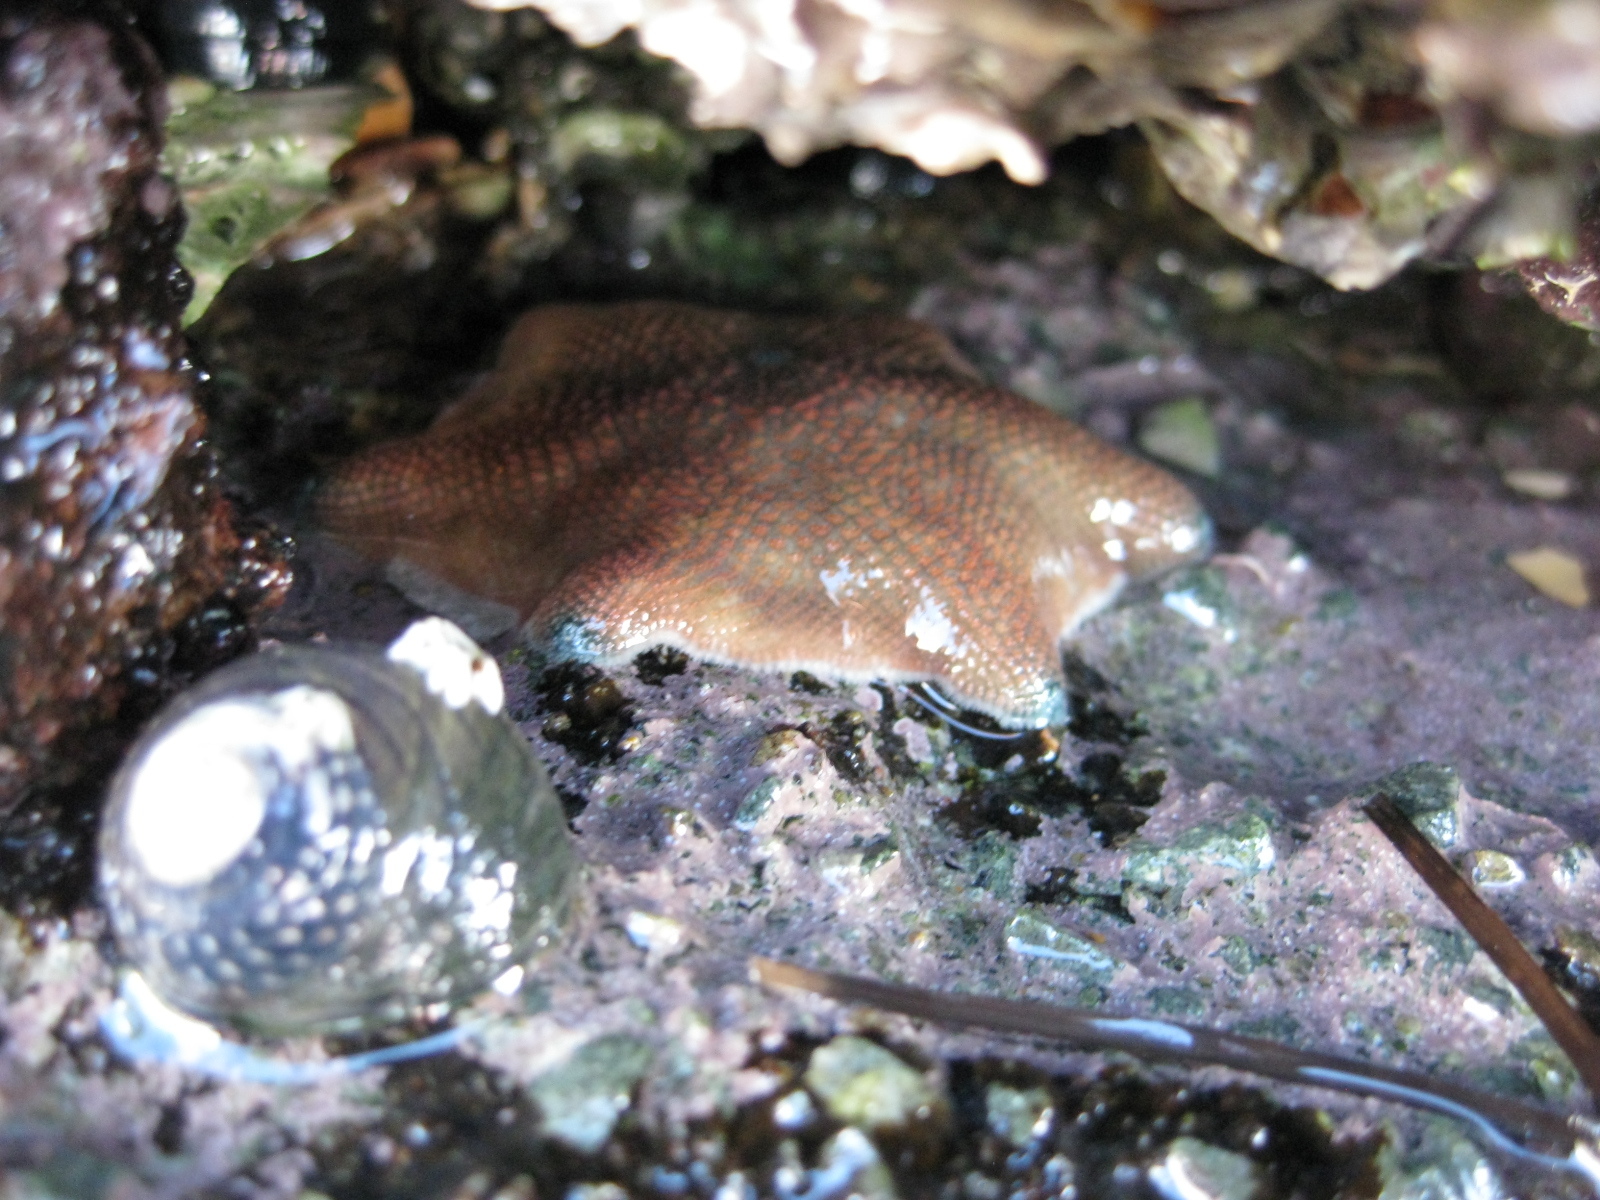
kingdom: Animalia
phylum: Echinodermata
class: Asteroidea
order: Valvatida
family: Asterinidae
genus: Patiriella
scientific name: Patiriella regularis
